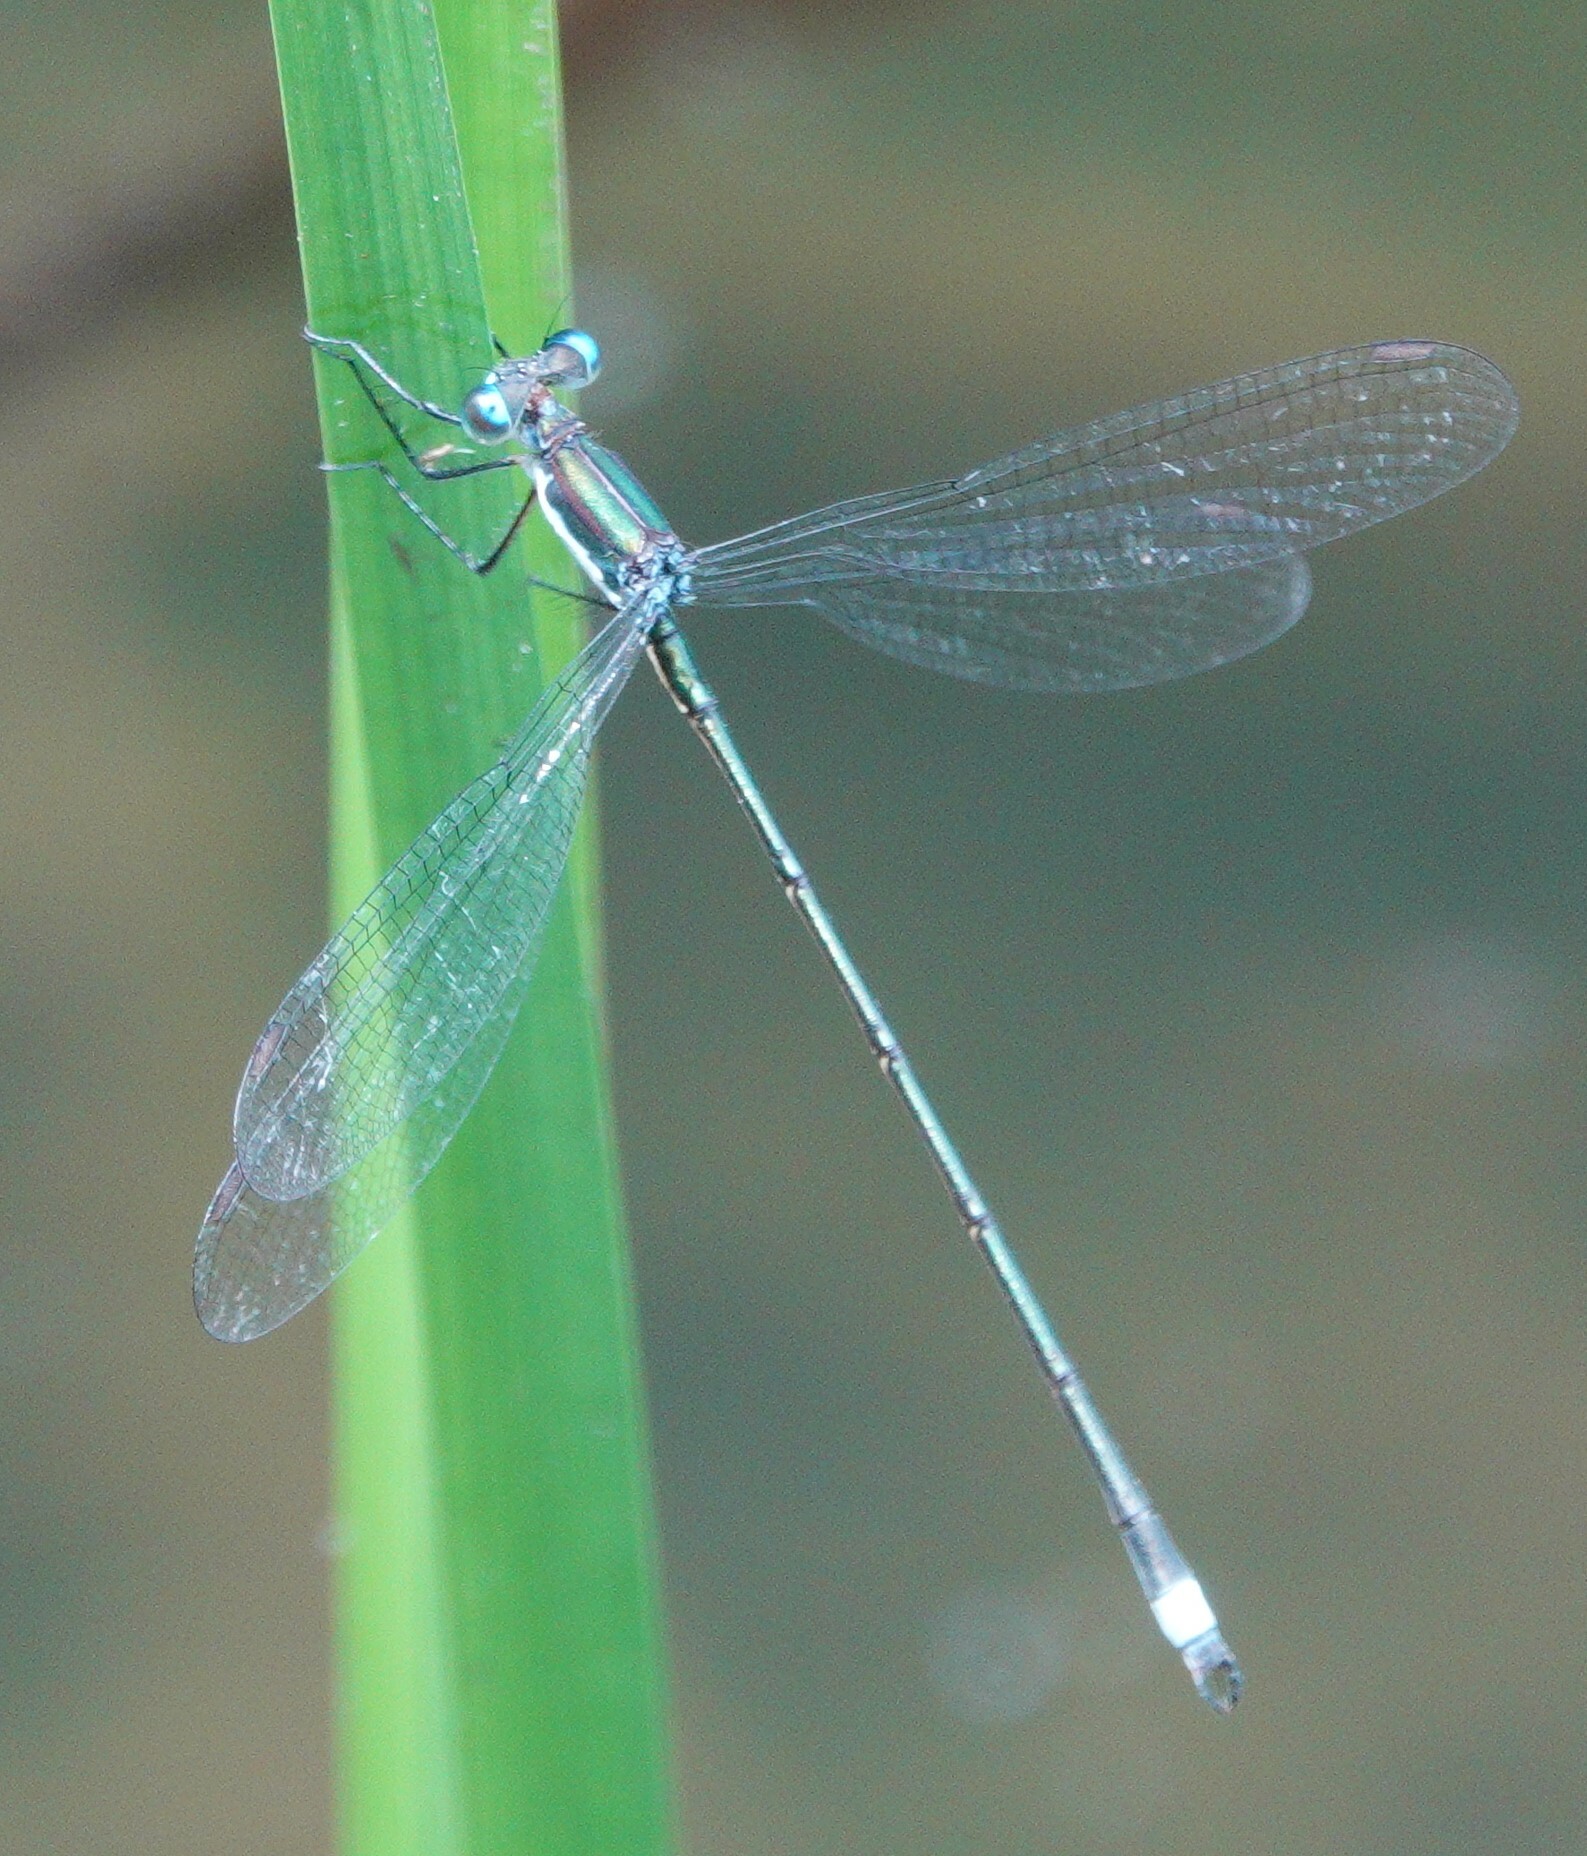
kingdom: Animalia
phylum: Arthropoda
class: Insecta
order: Odonata
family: Lestidae
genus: Lestes
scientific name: Lestes vigilax
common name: Swamp spreadwing
